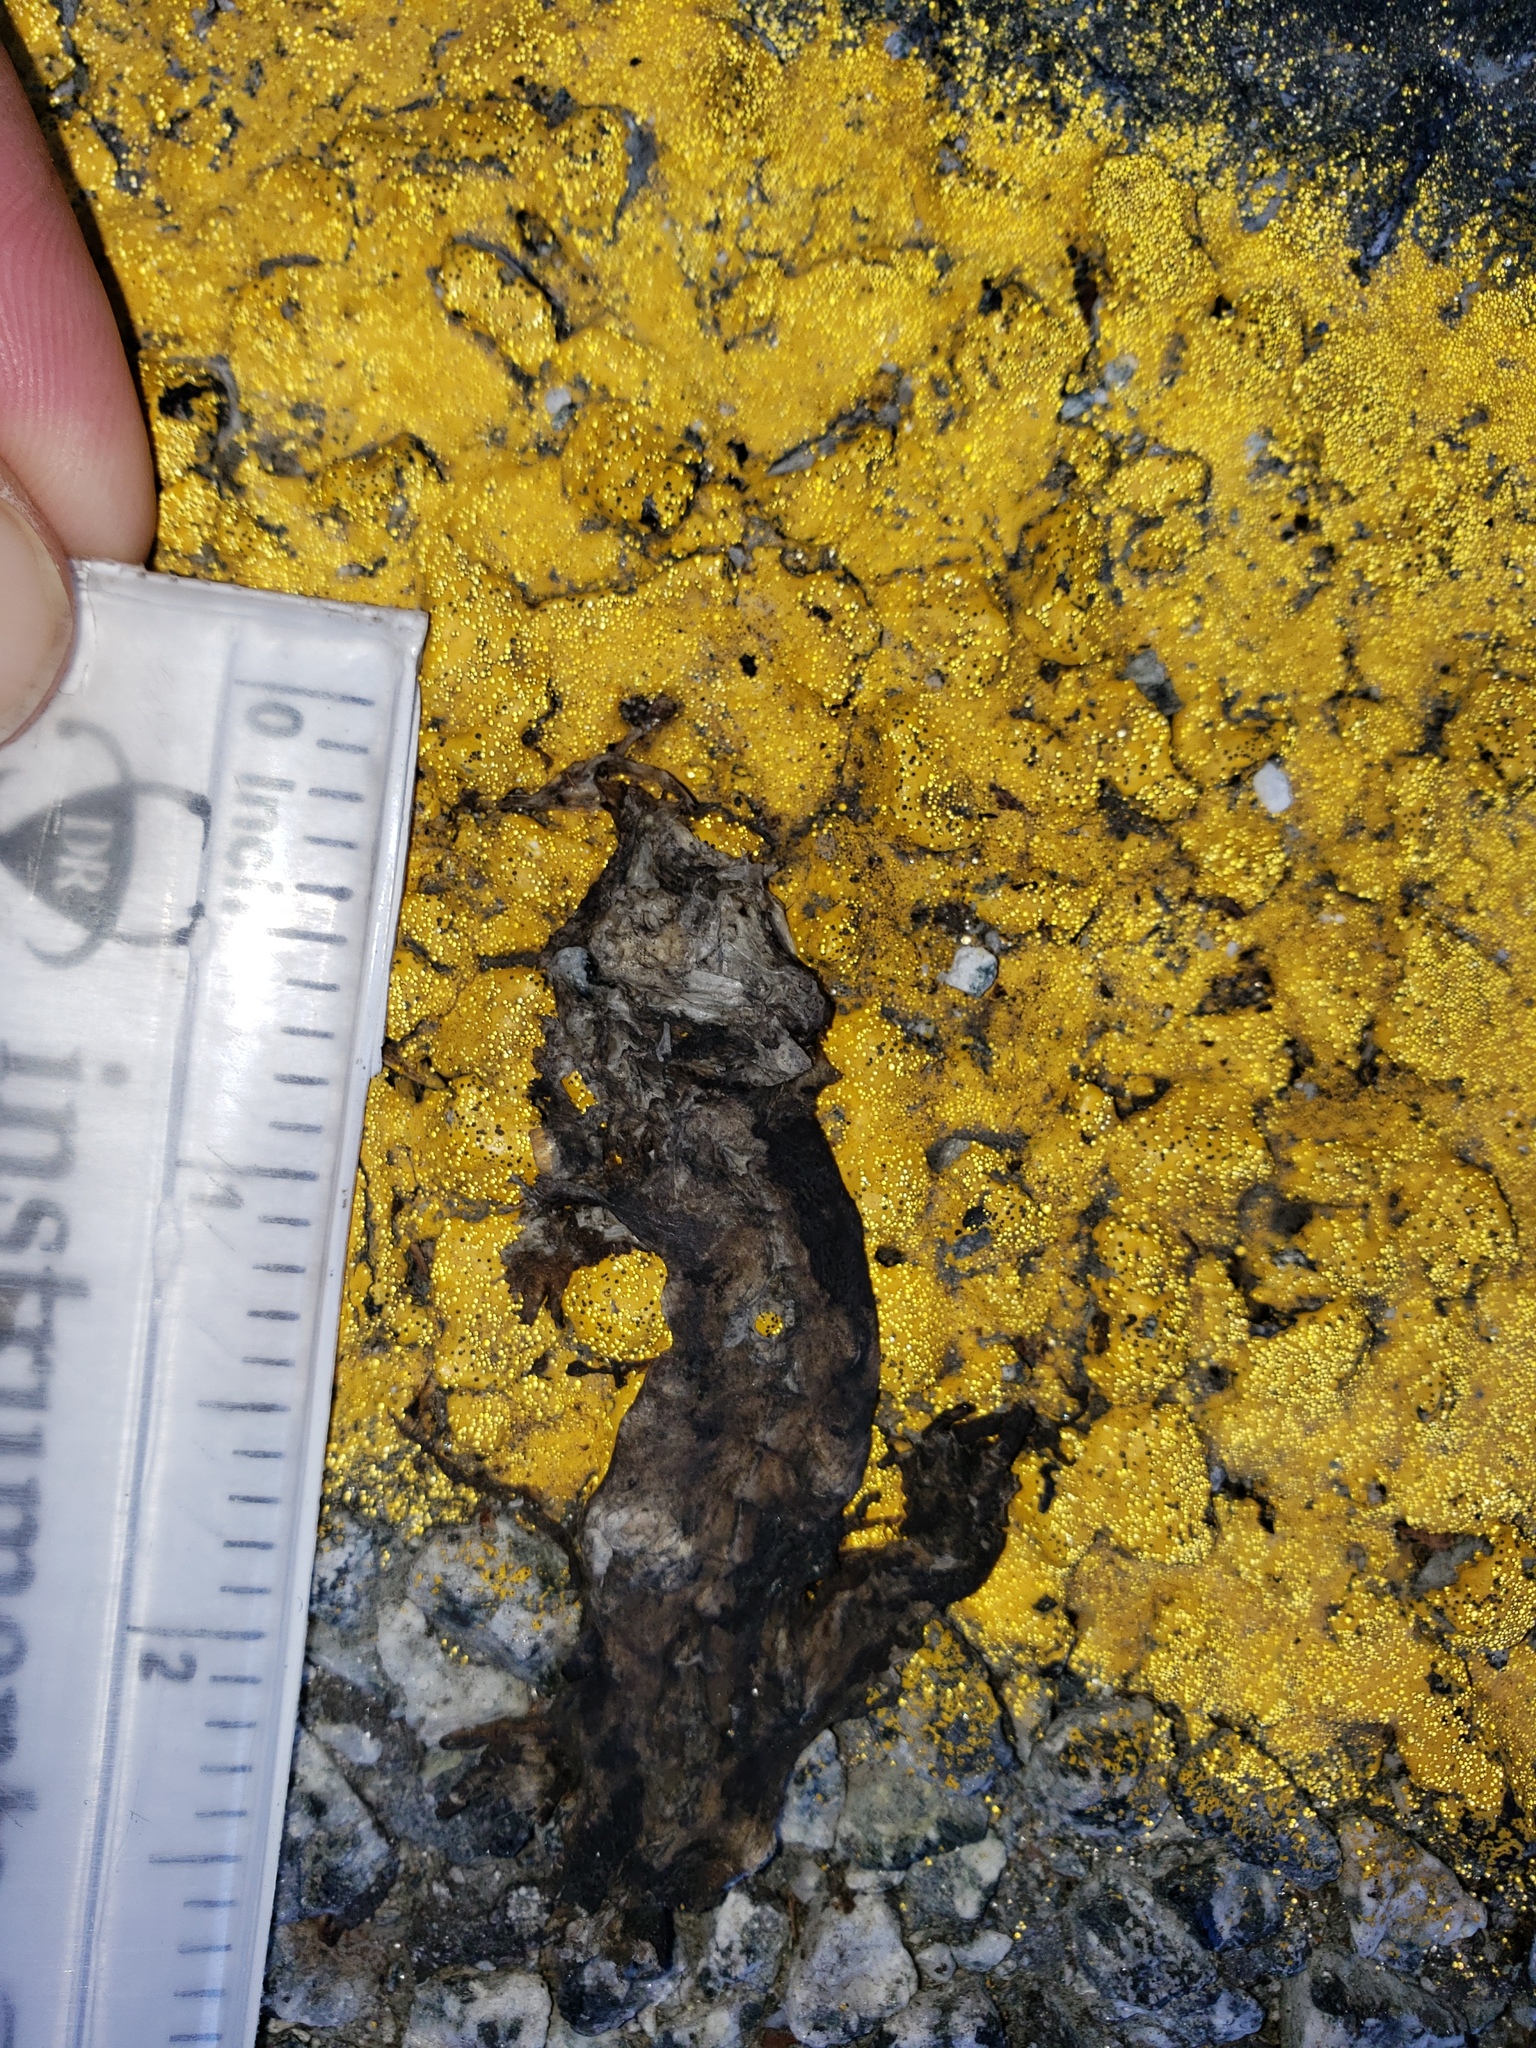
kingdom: Animalia
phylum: Chordata
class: Amphibia
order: Caudata
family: Salamandridae
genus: Taricha
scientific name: Taricha
